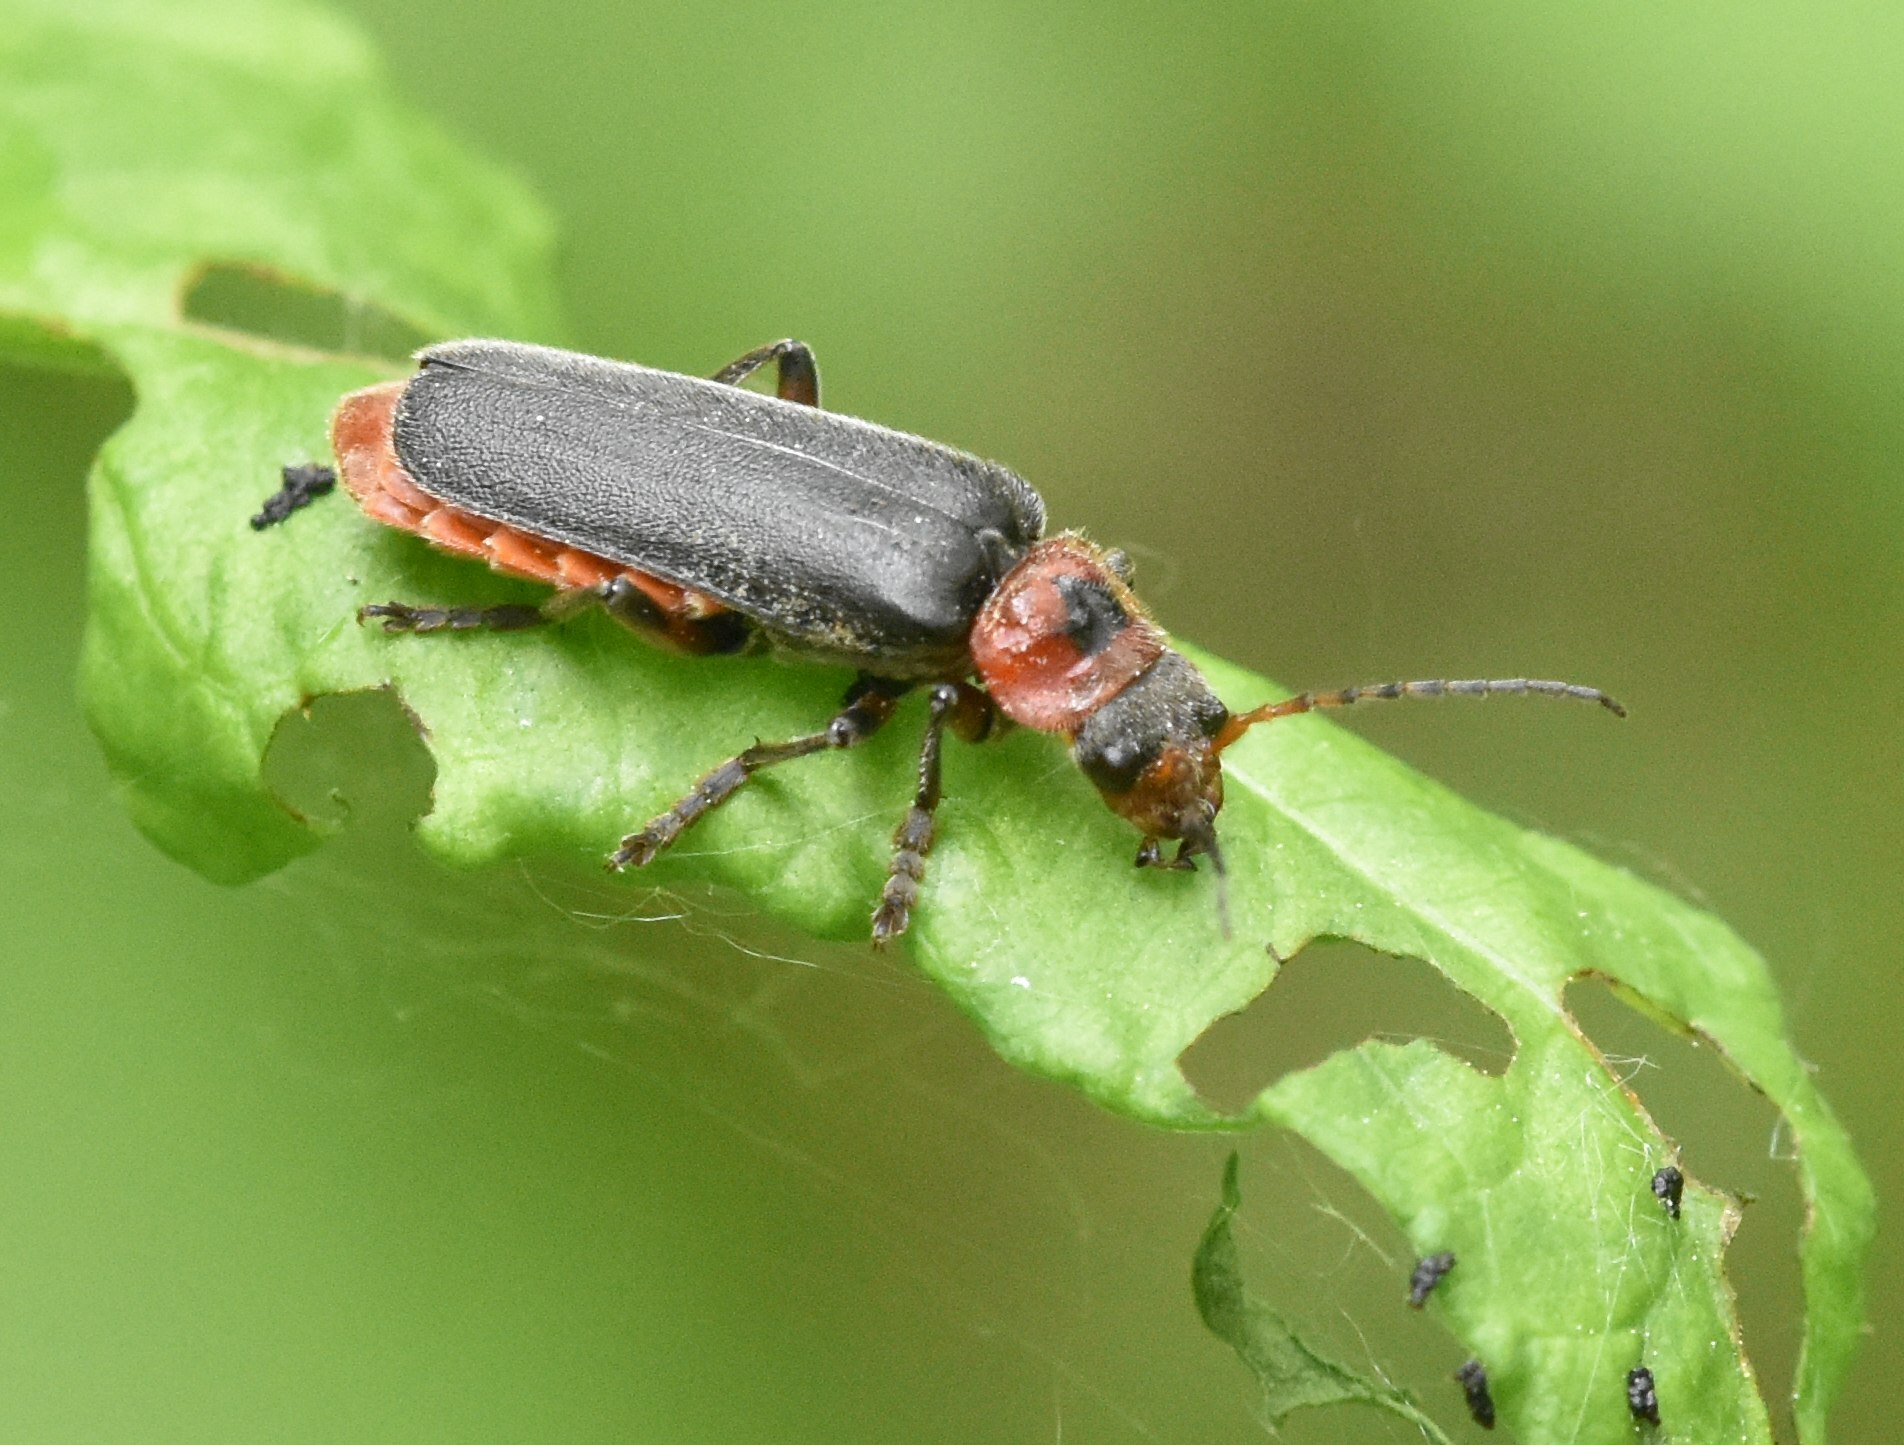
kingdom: Animalia
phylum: Arthropoda
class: Insecta
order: Coleoptera
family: Cantharidae
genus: Cantharis
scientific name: Cantharis rustica
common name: Soldier beetle
